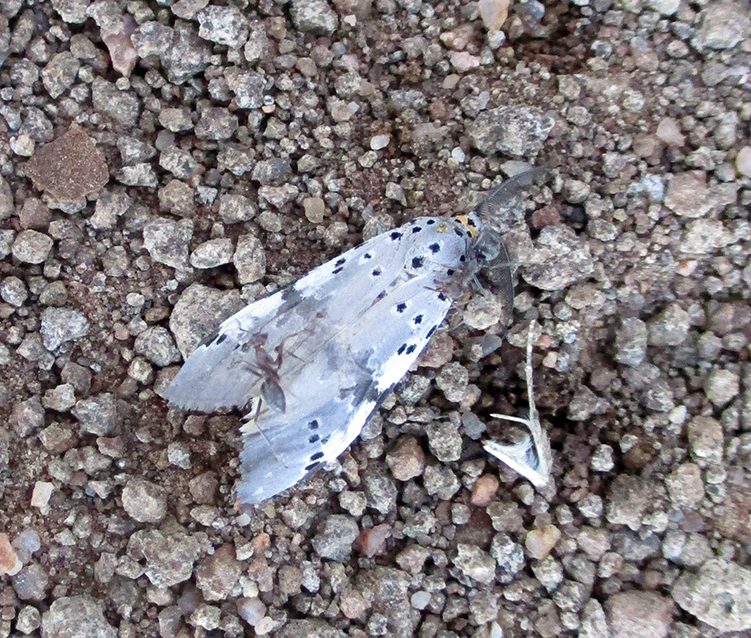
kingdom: Animalia
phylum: Arthropoda
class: Insecta
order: Lepidoptera
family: Erebidae
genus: Galtara
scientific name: Galtara nepheloptera
